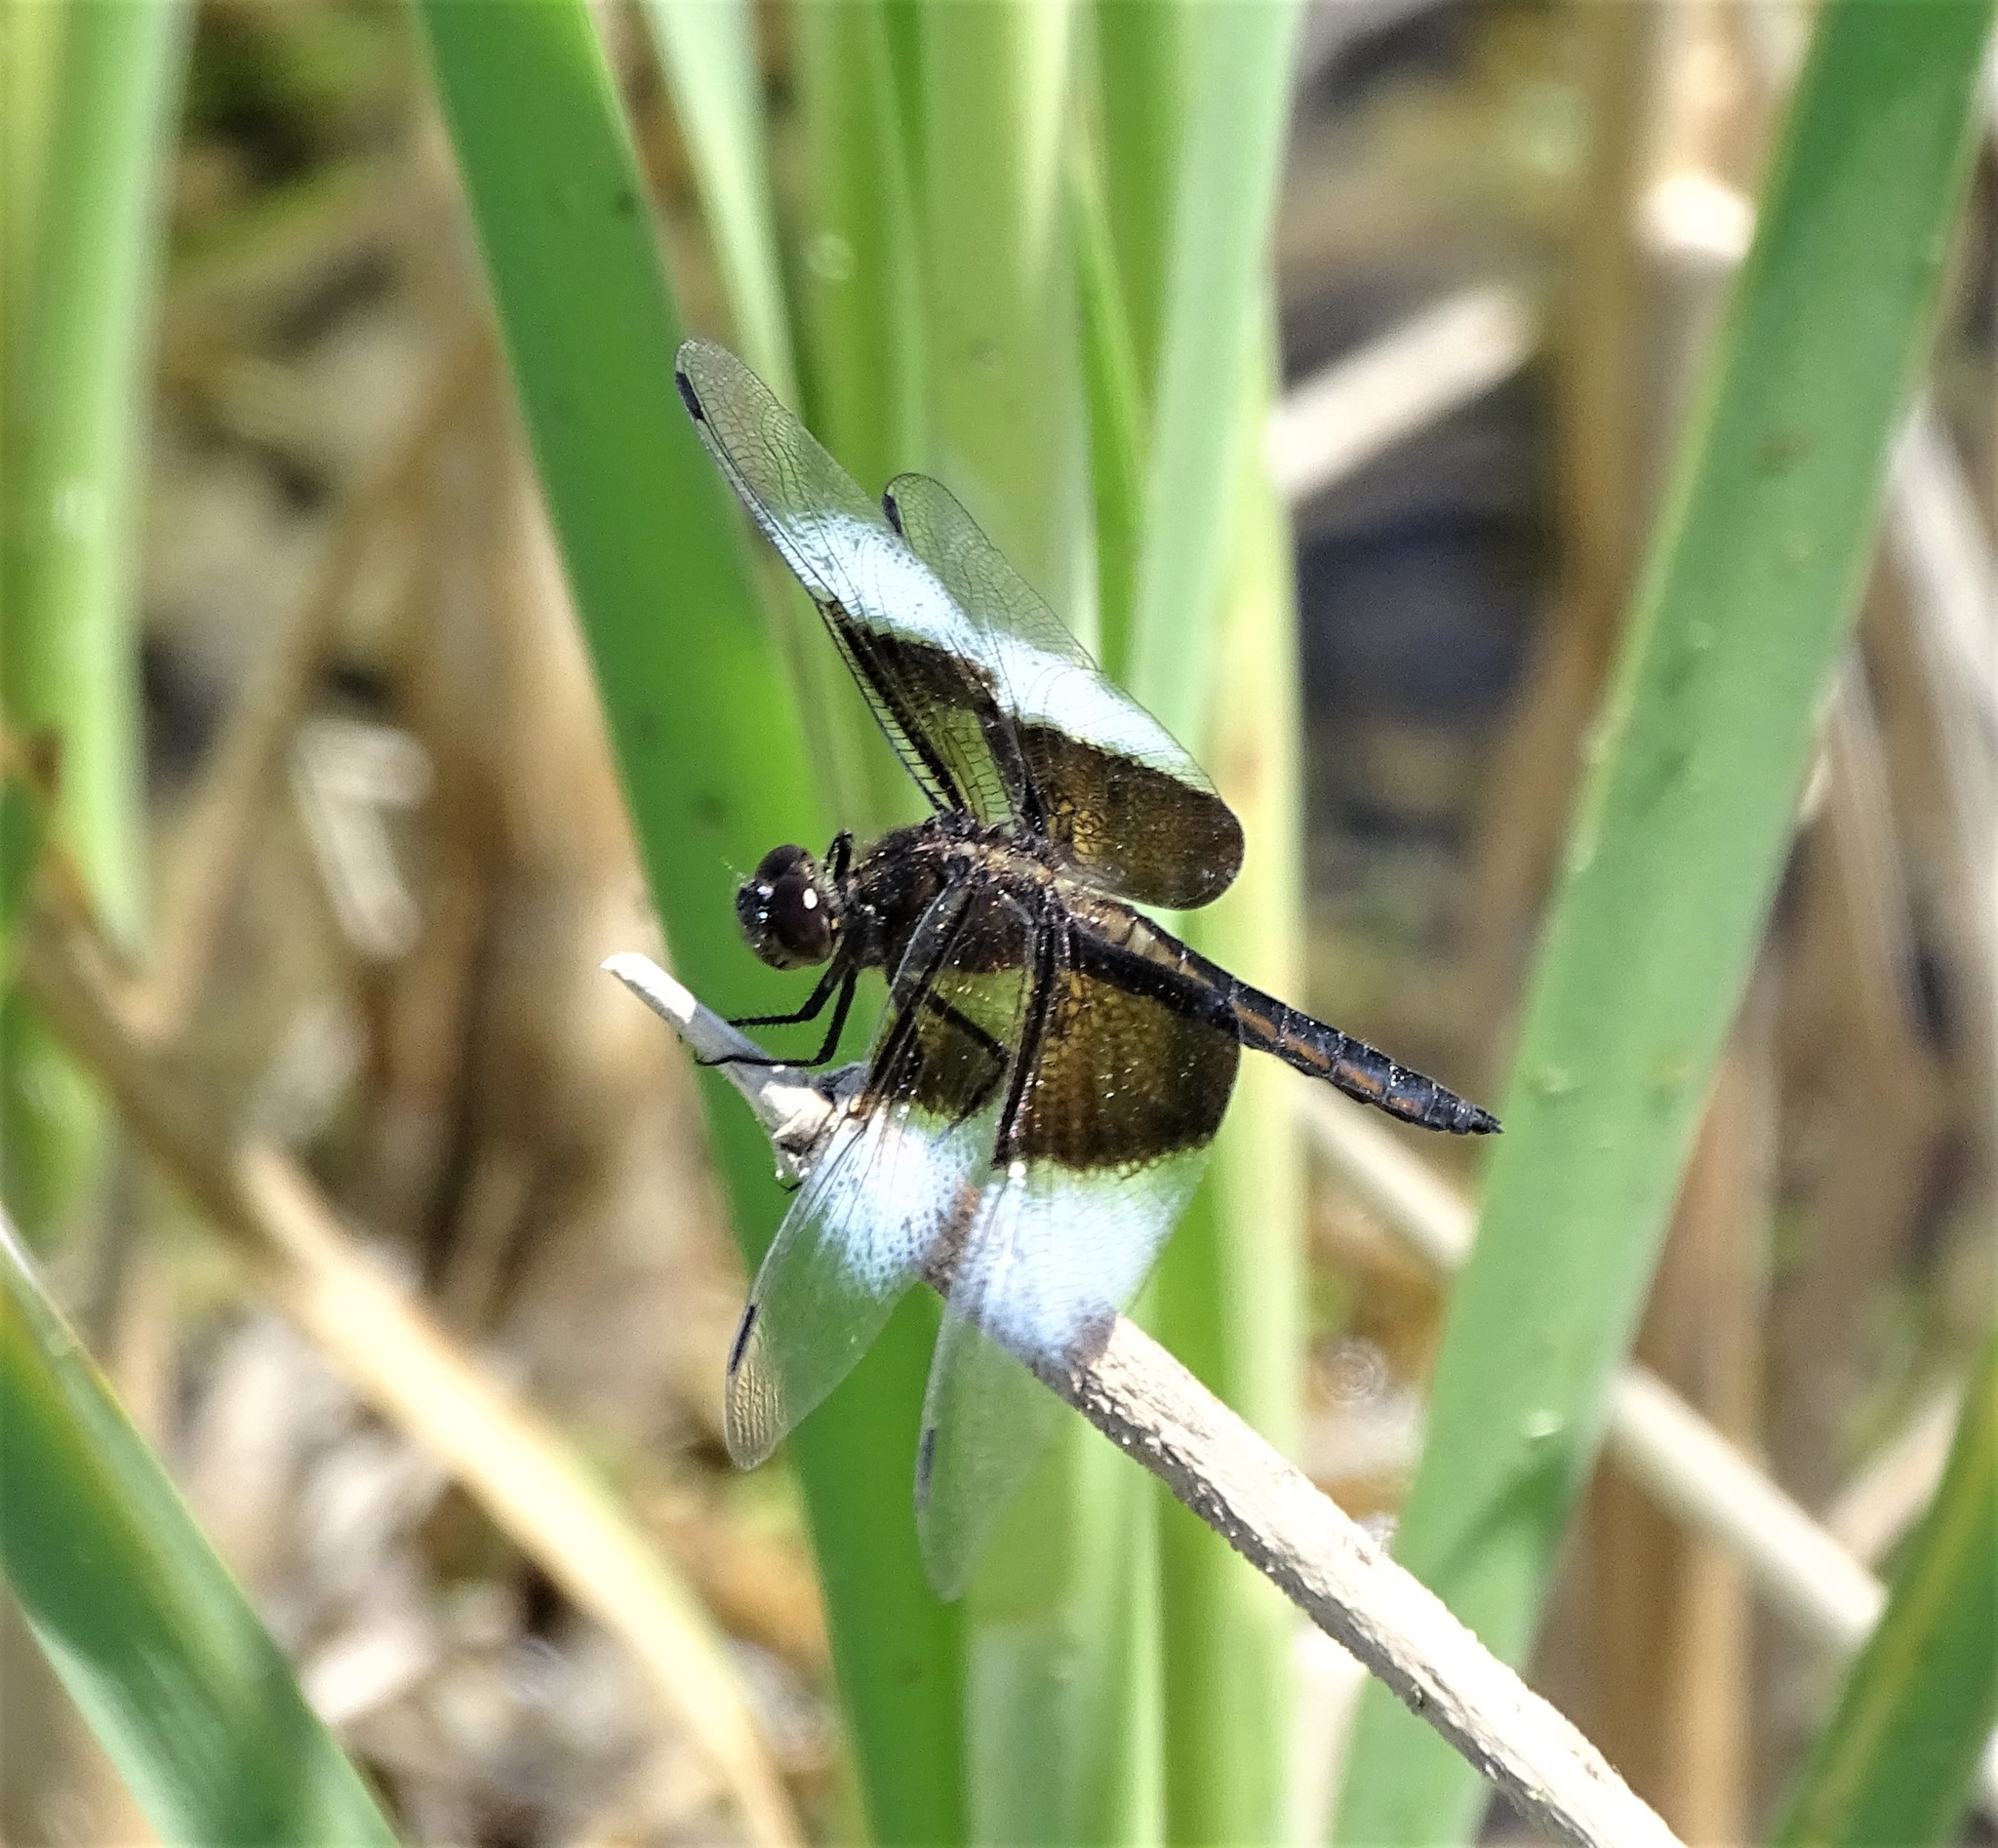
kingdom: Animalia
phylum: Arthropoda
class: Insecta
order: Odonata
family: Libellulidae
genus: Libellula
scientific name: Libellula luctuosa
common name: Widow skimmer
